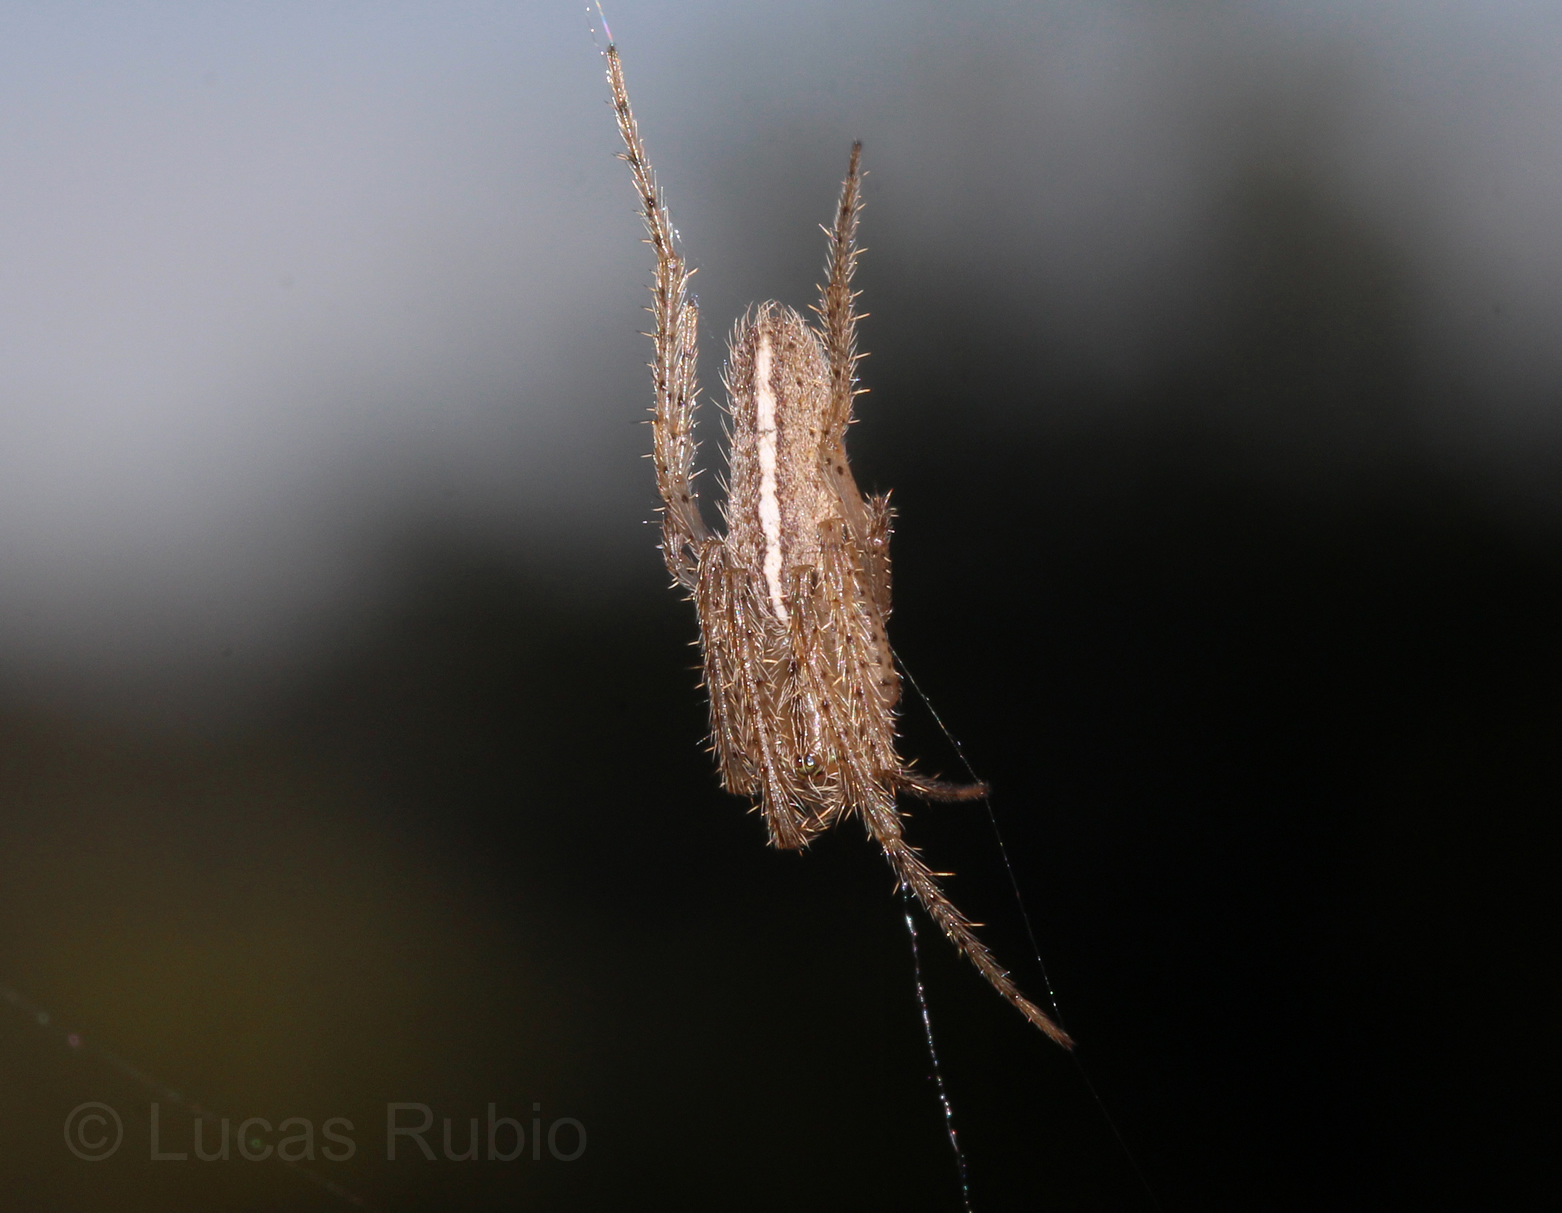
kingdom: Animalia
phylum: Arthropoda
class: Arachnida
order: Araneae
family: Araneidae
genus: Larinia
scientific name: Larinia t-notata
